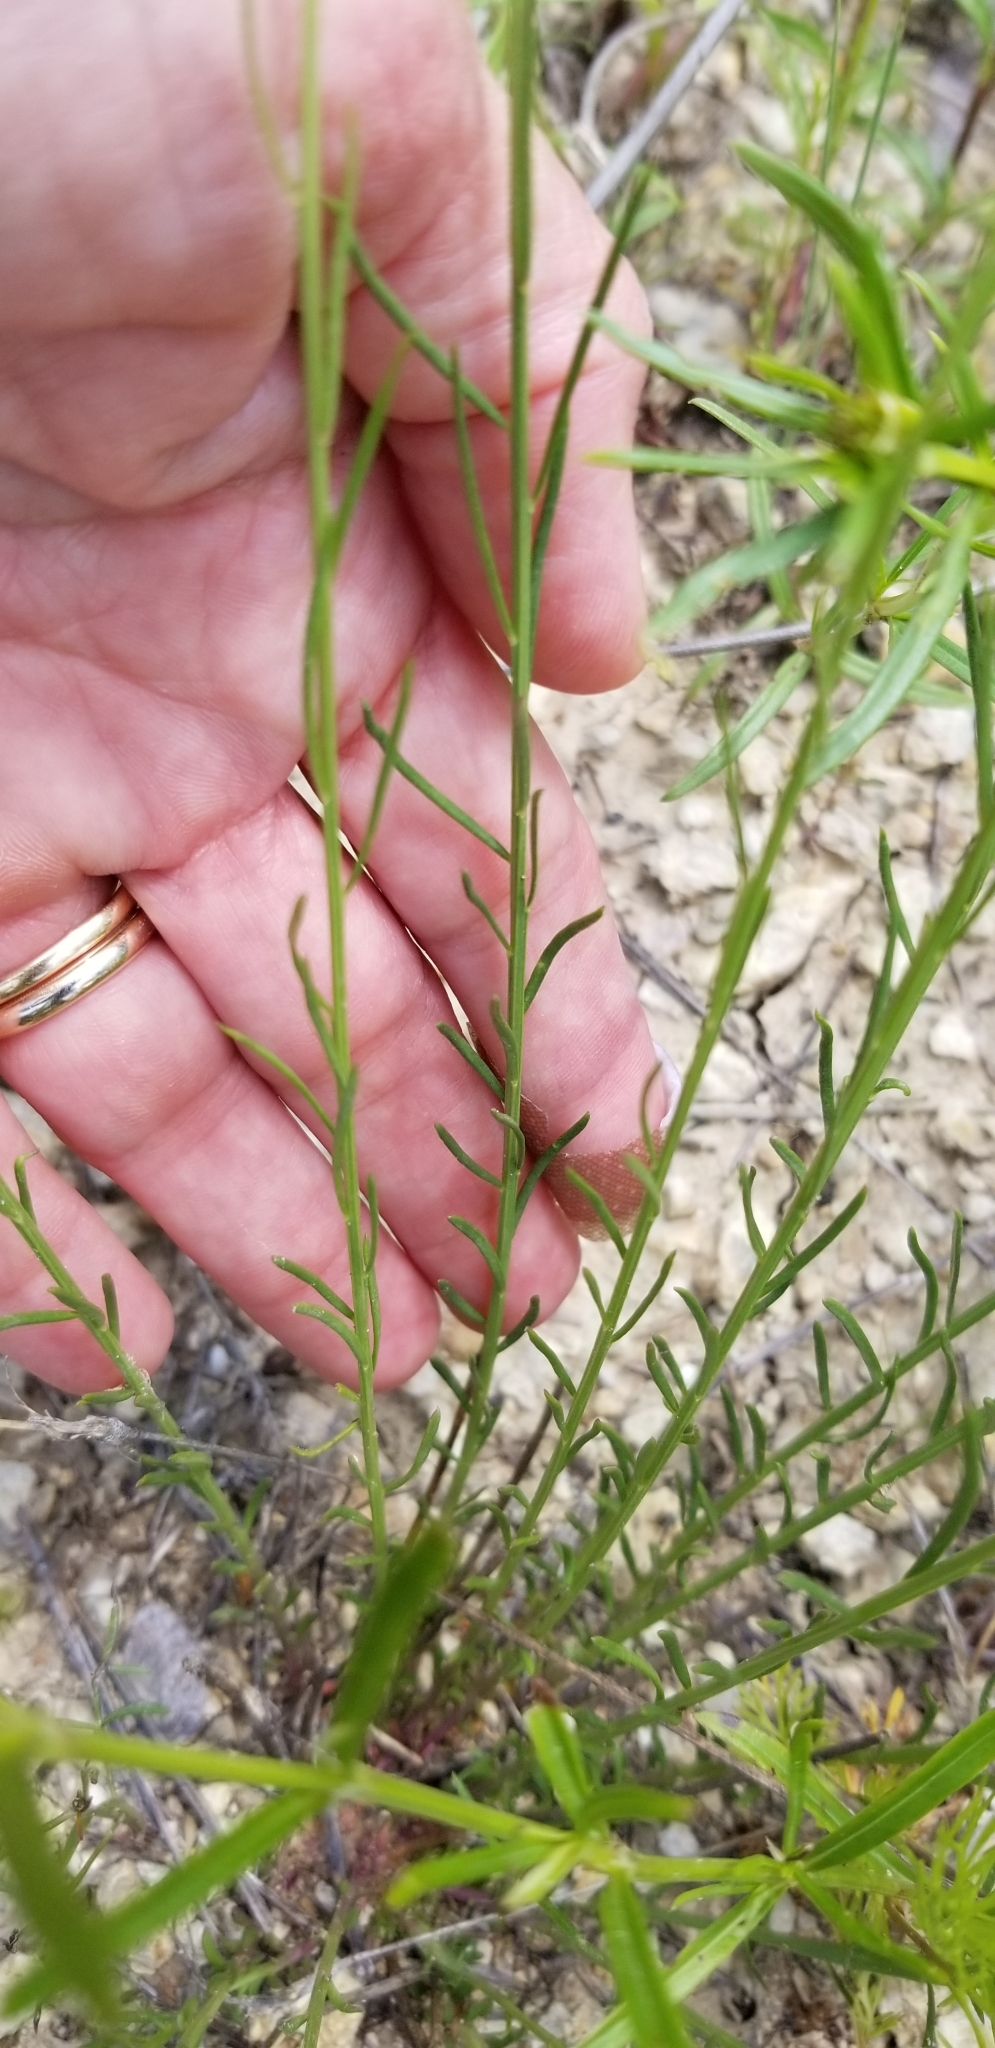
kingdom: Plantae
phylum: Tracheophyta
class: Magnoliopsida
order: Fabales
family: Polygalaceae
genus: Polygala
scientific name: Polygala alba
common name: White milkwort
